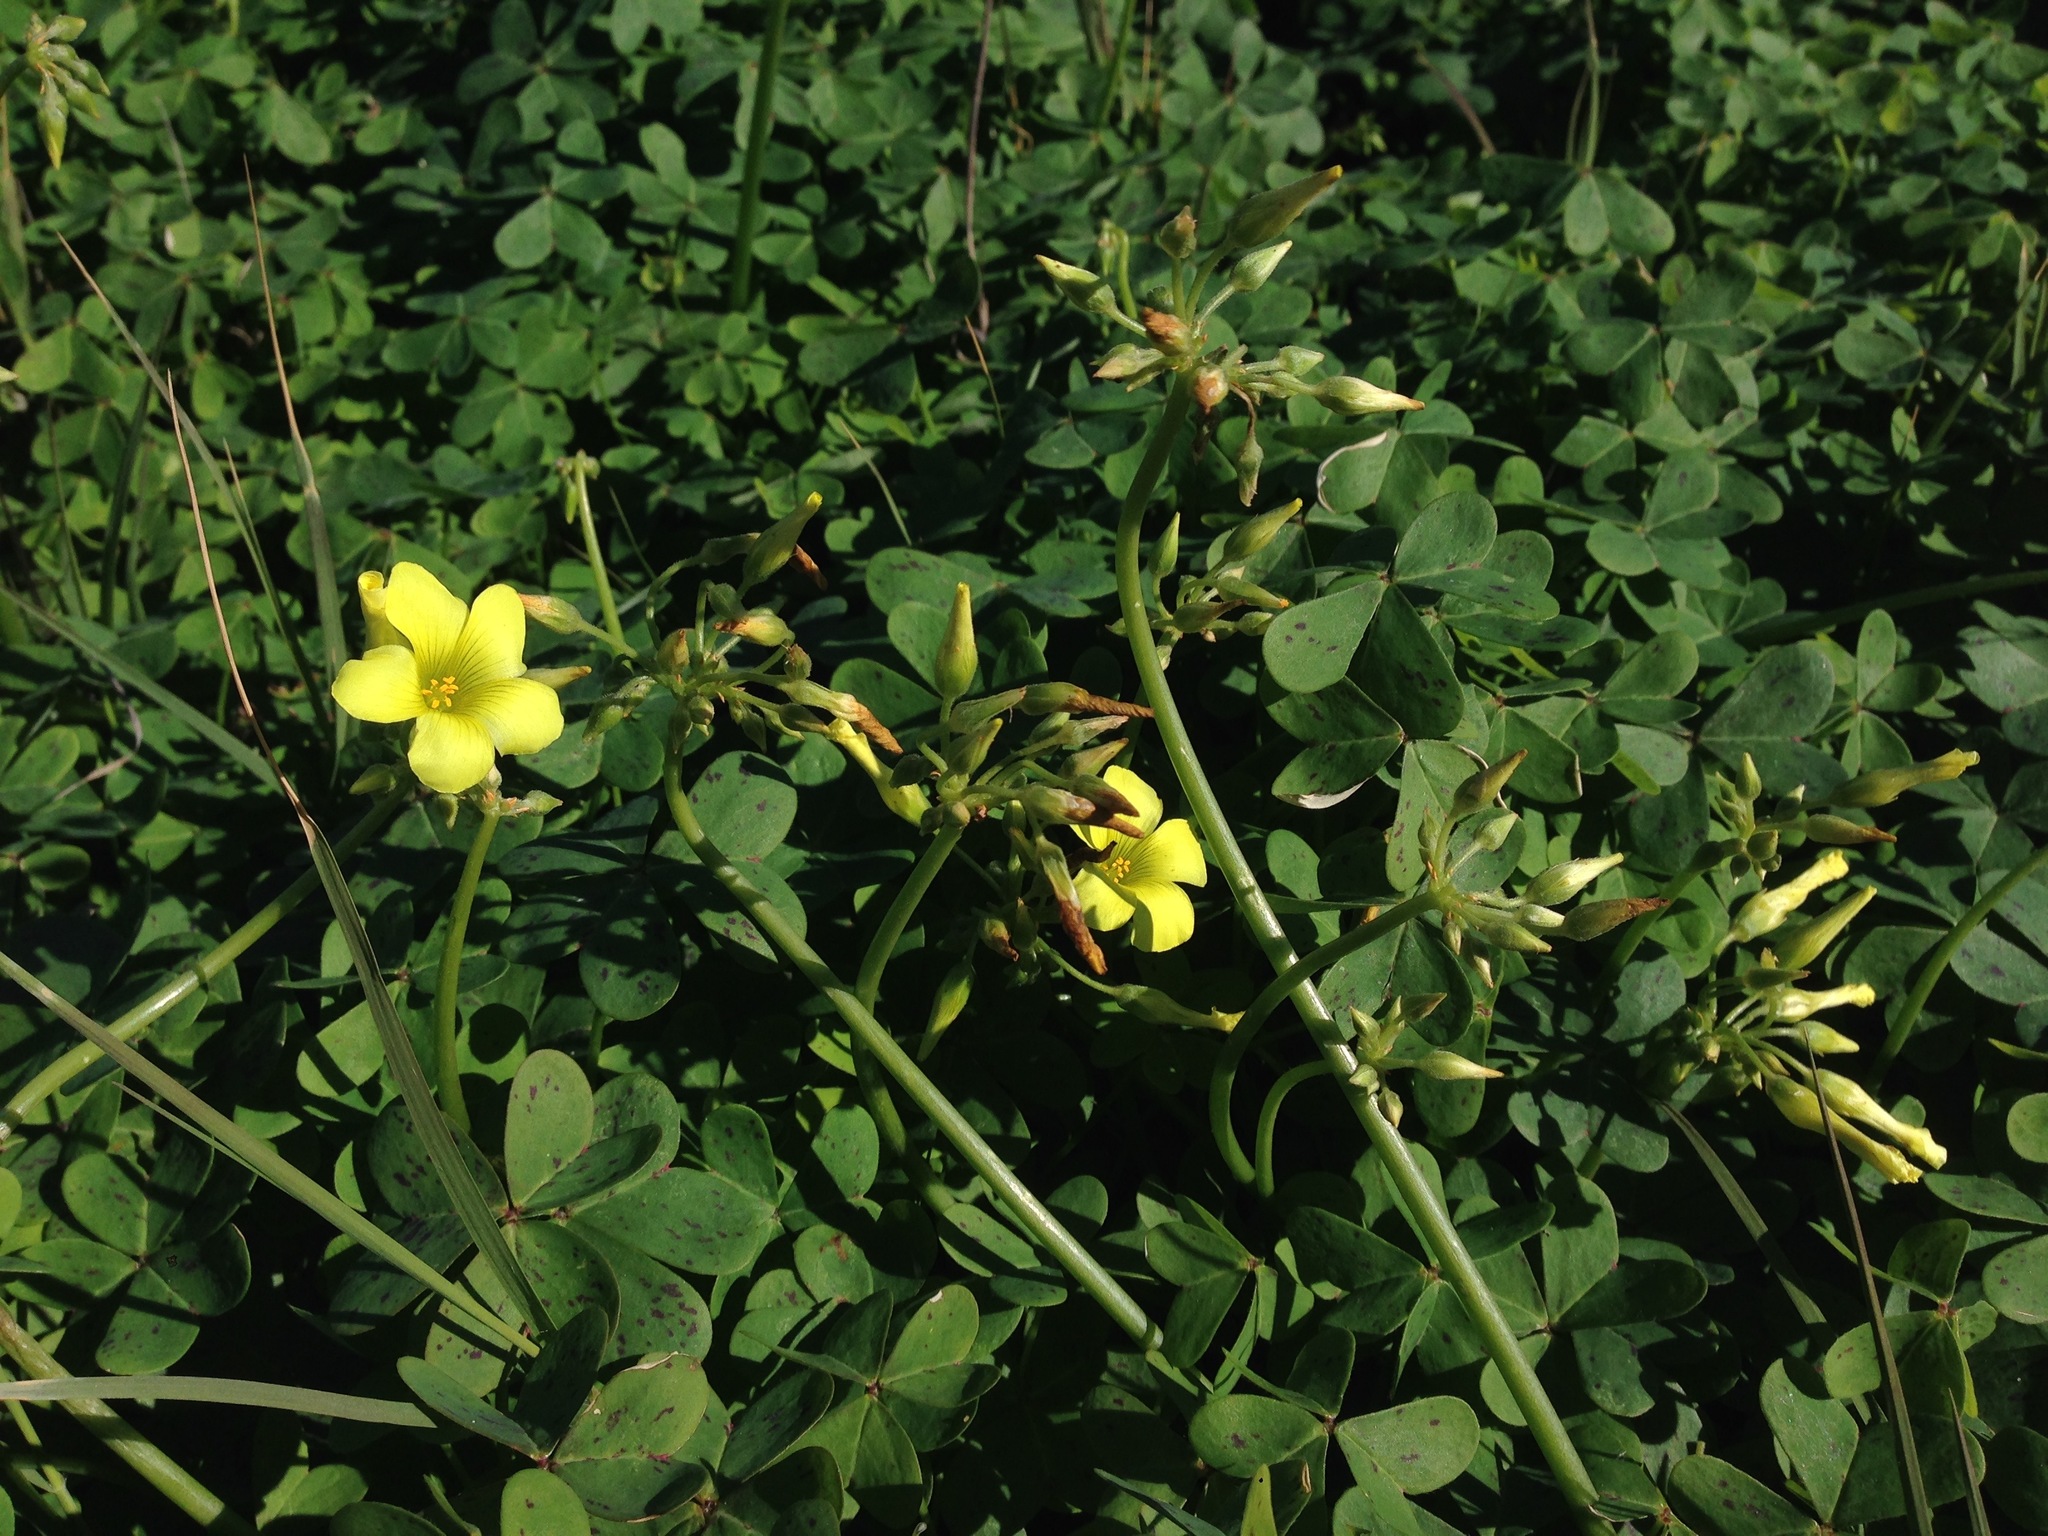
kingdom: Plantae
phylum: Tracheophyta
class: Magnoliopsida
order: Oxalidales
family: Oxalidaceae
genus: Oxalis
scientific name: Oxalis pes-caprae
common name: Bermuda-buttercup
